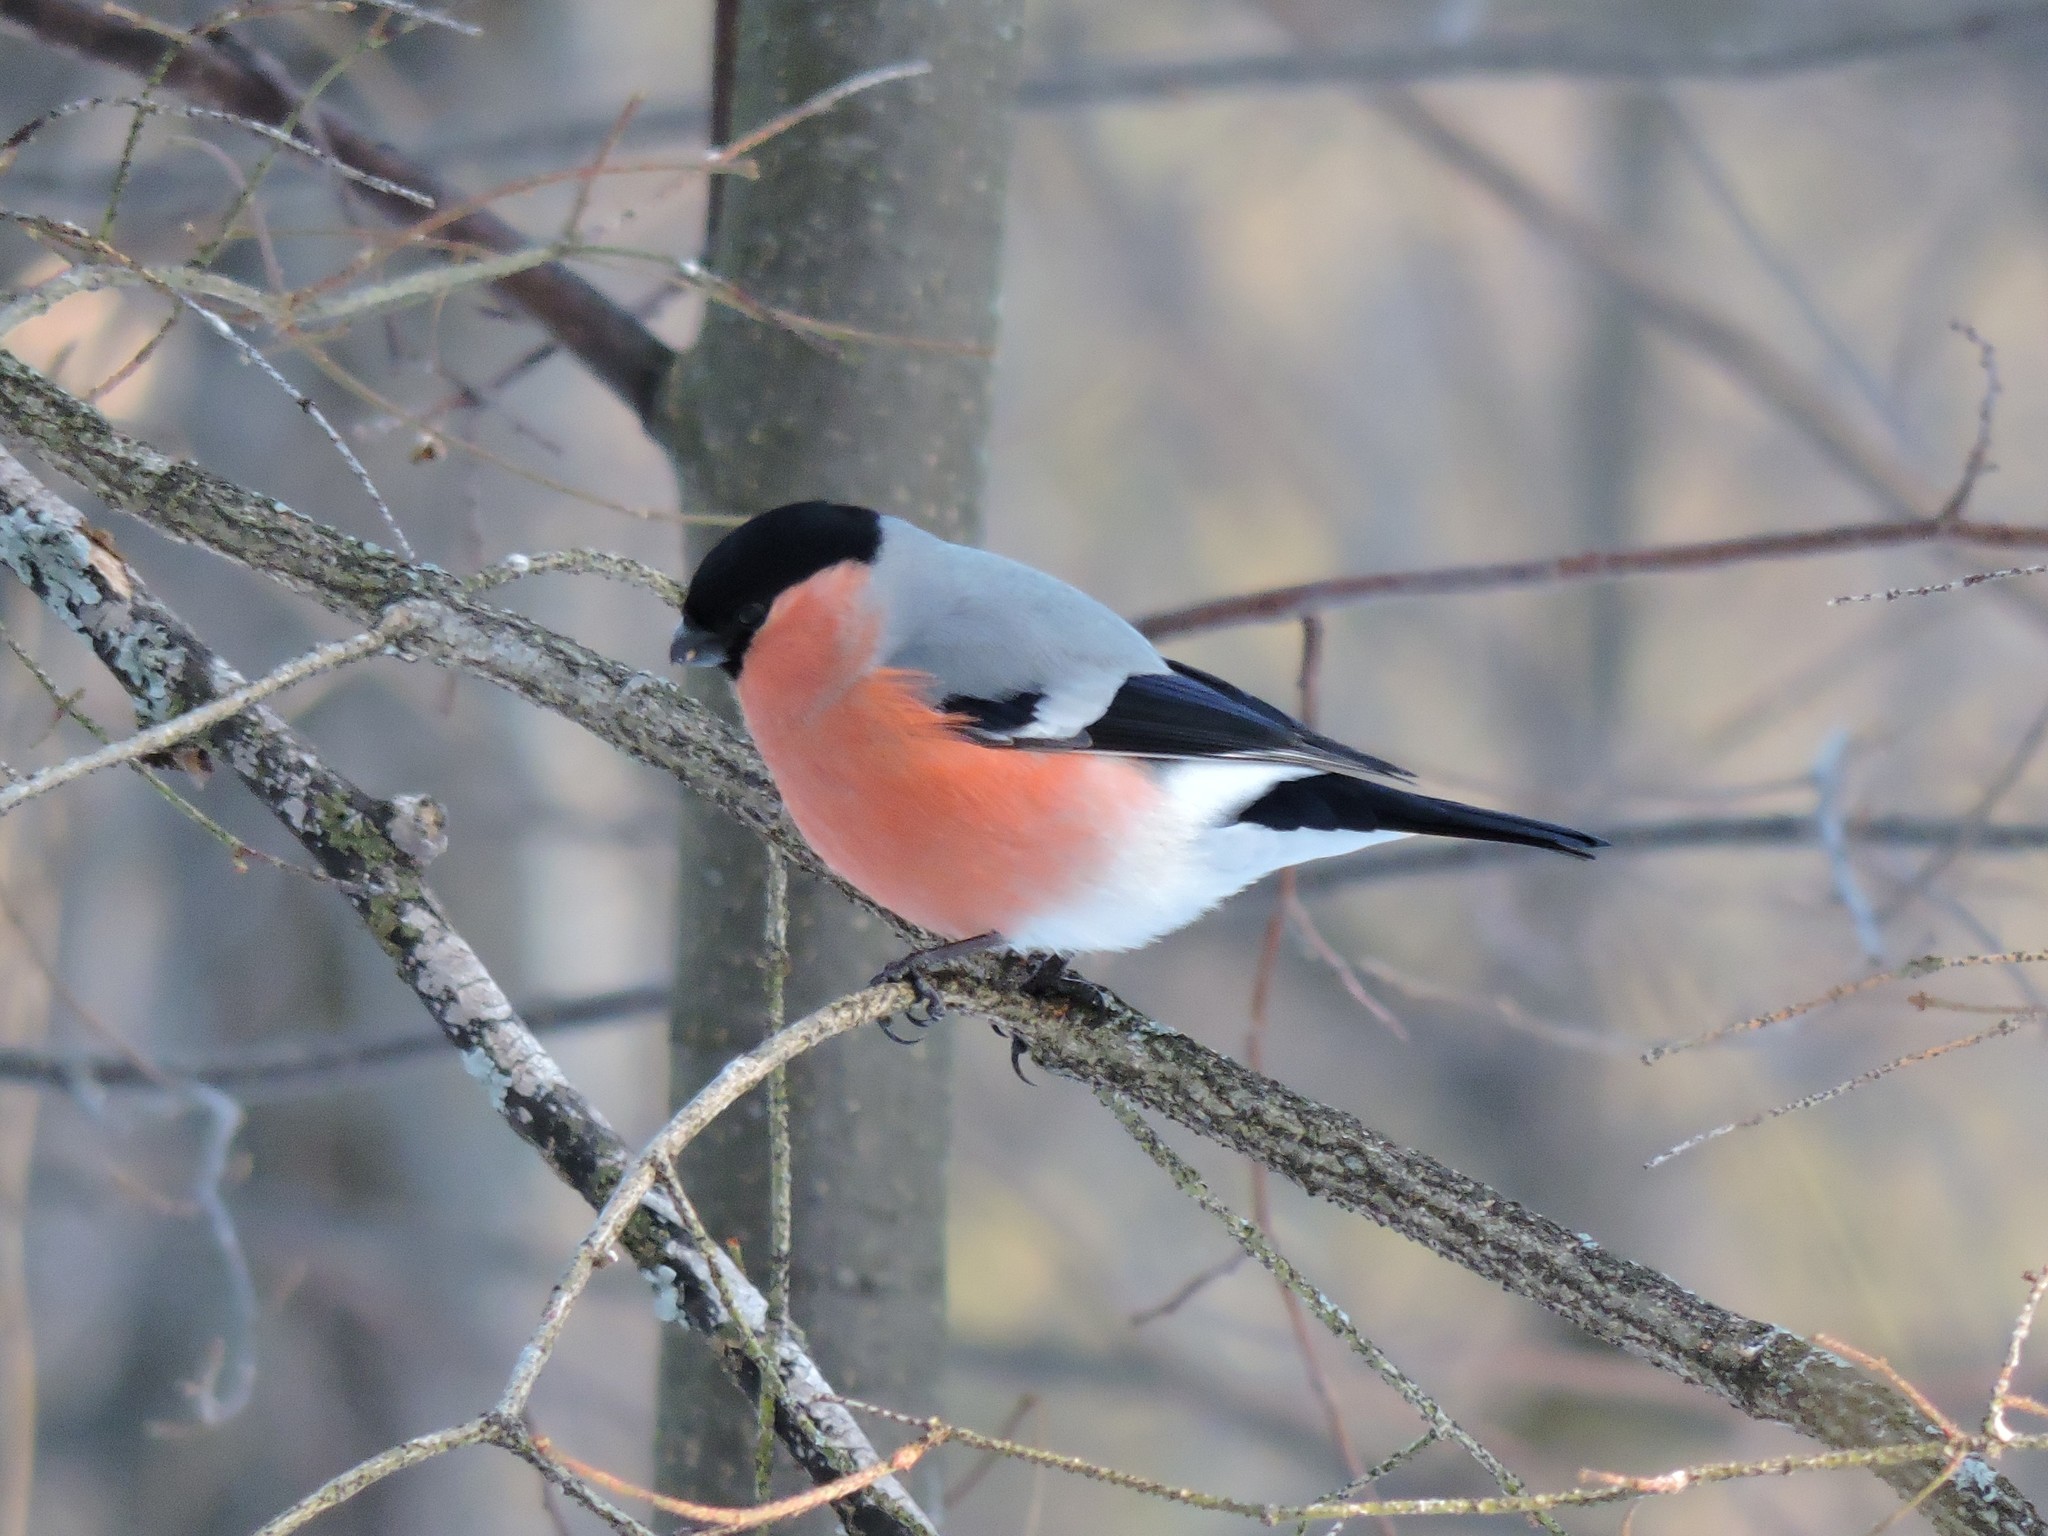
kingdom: Animalia
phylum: Chordata
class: Aves
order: Passeriformes
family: Fringillidae
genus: Pyrrhula
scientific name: Pyrrhula pyrrhula
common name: Eurasian bullfinch
